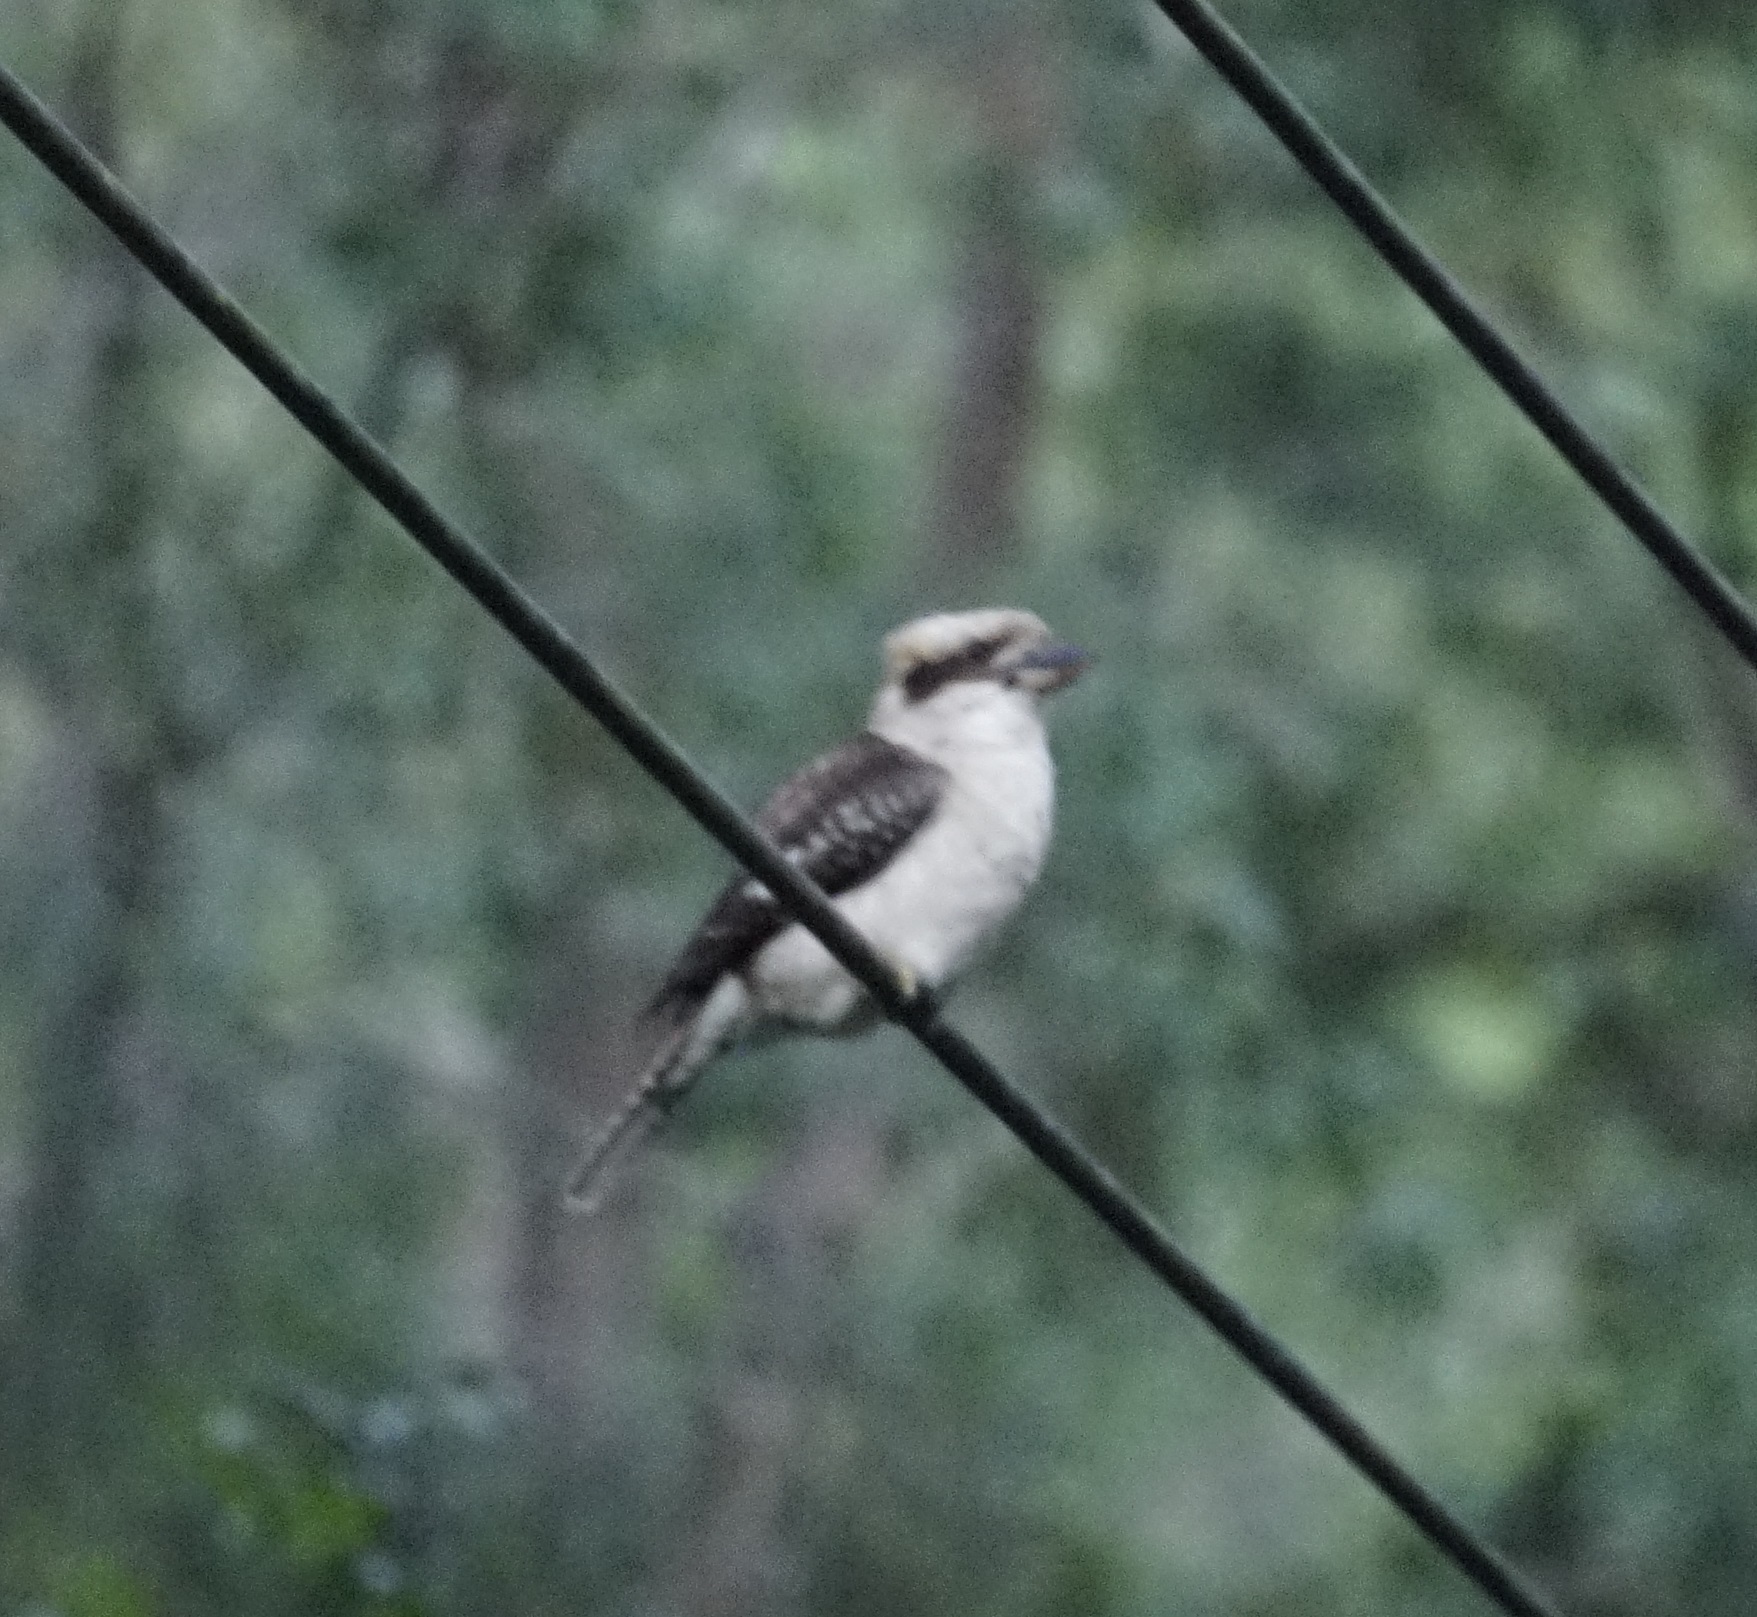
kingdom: Animalia
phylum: Chordata
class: Aves
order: Coraciiformes
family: Alcedinidae
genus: Dacelo
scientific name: Dacelo novaeguineae
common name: Laughing kookaburra
